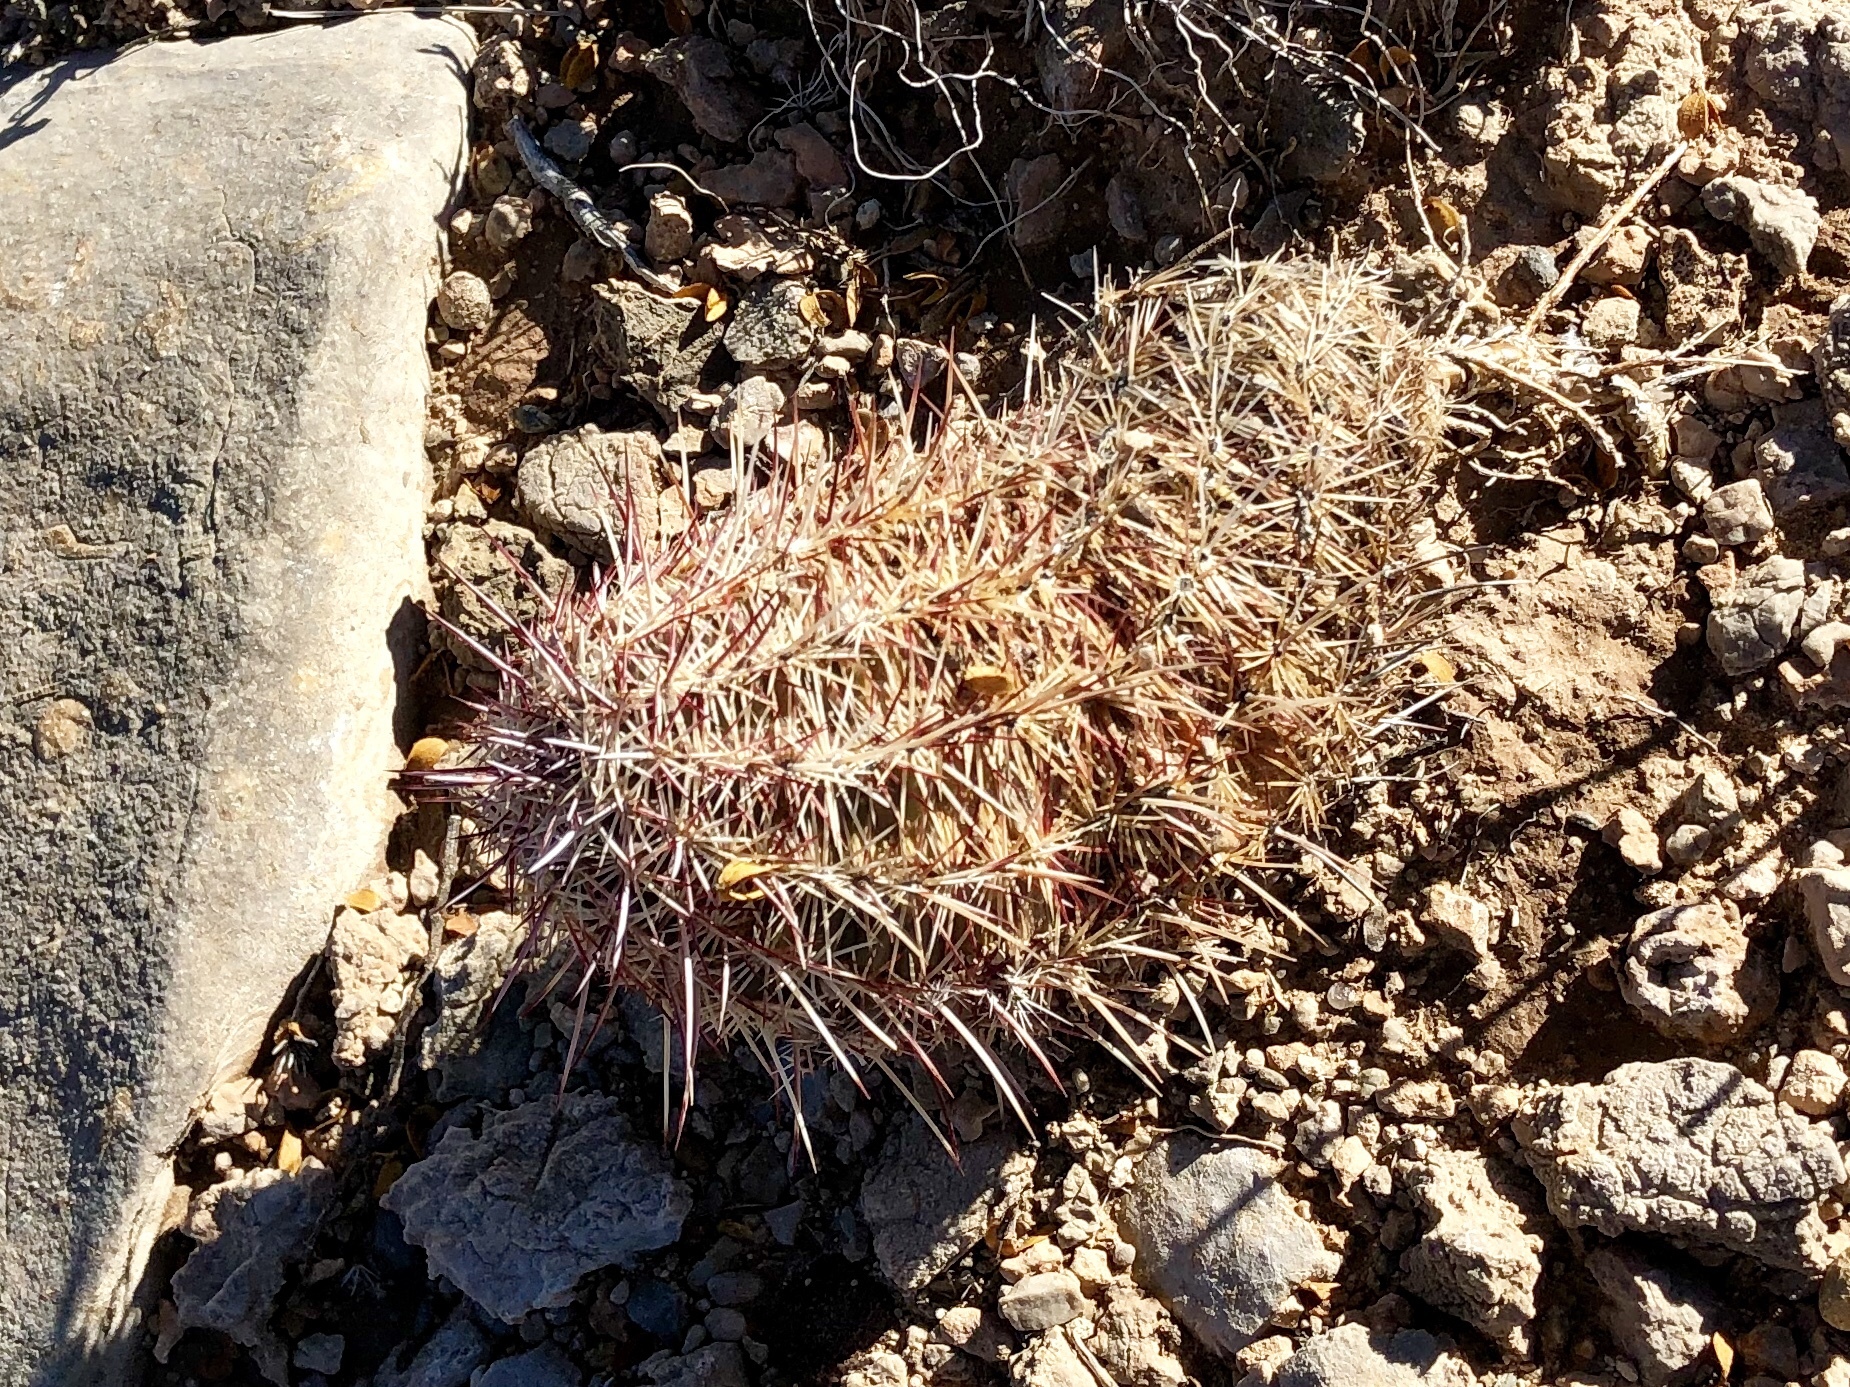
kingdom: Plantae
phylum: Tracheophyta
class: Magnoliopsida
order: Caryophyllales
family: Cactaceae
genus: Echinocereus
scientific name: Echinocereus viridiflorus
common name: Nylon hedgehog cactus
